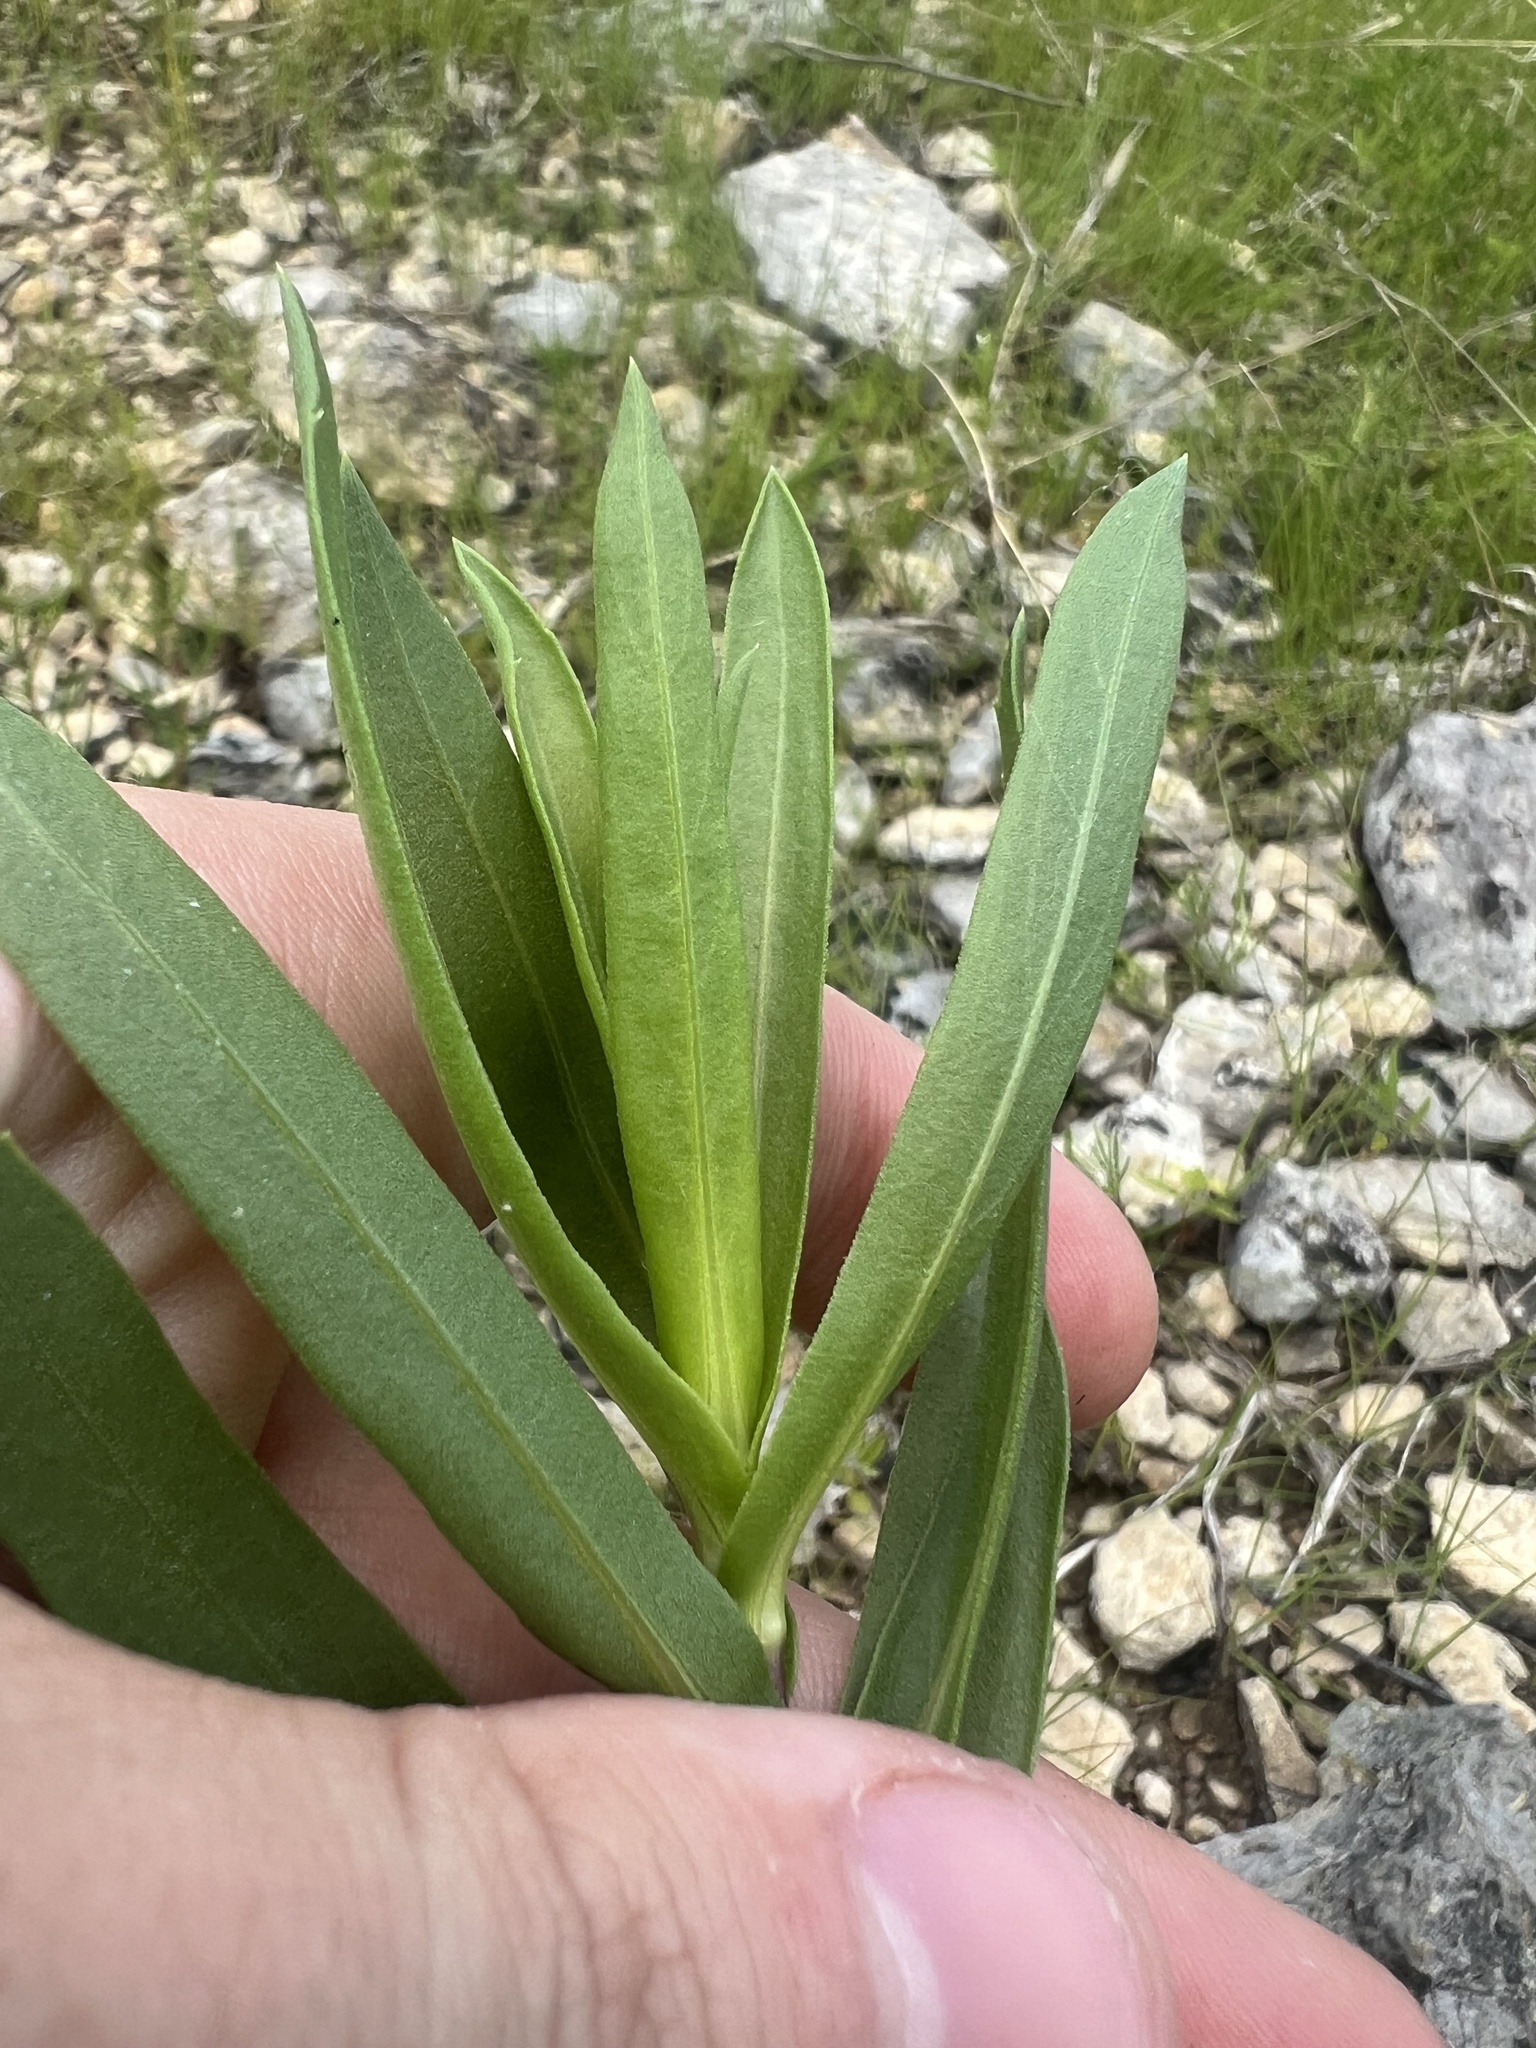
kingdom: Plantae
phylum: Tracheophyta
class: Magnoliopsida
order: Asterales
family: Asteraceae
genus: Grindelia
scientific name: Grindelia lanceolata
